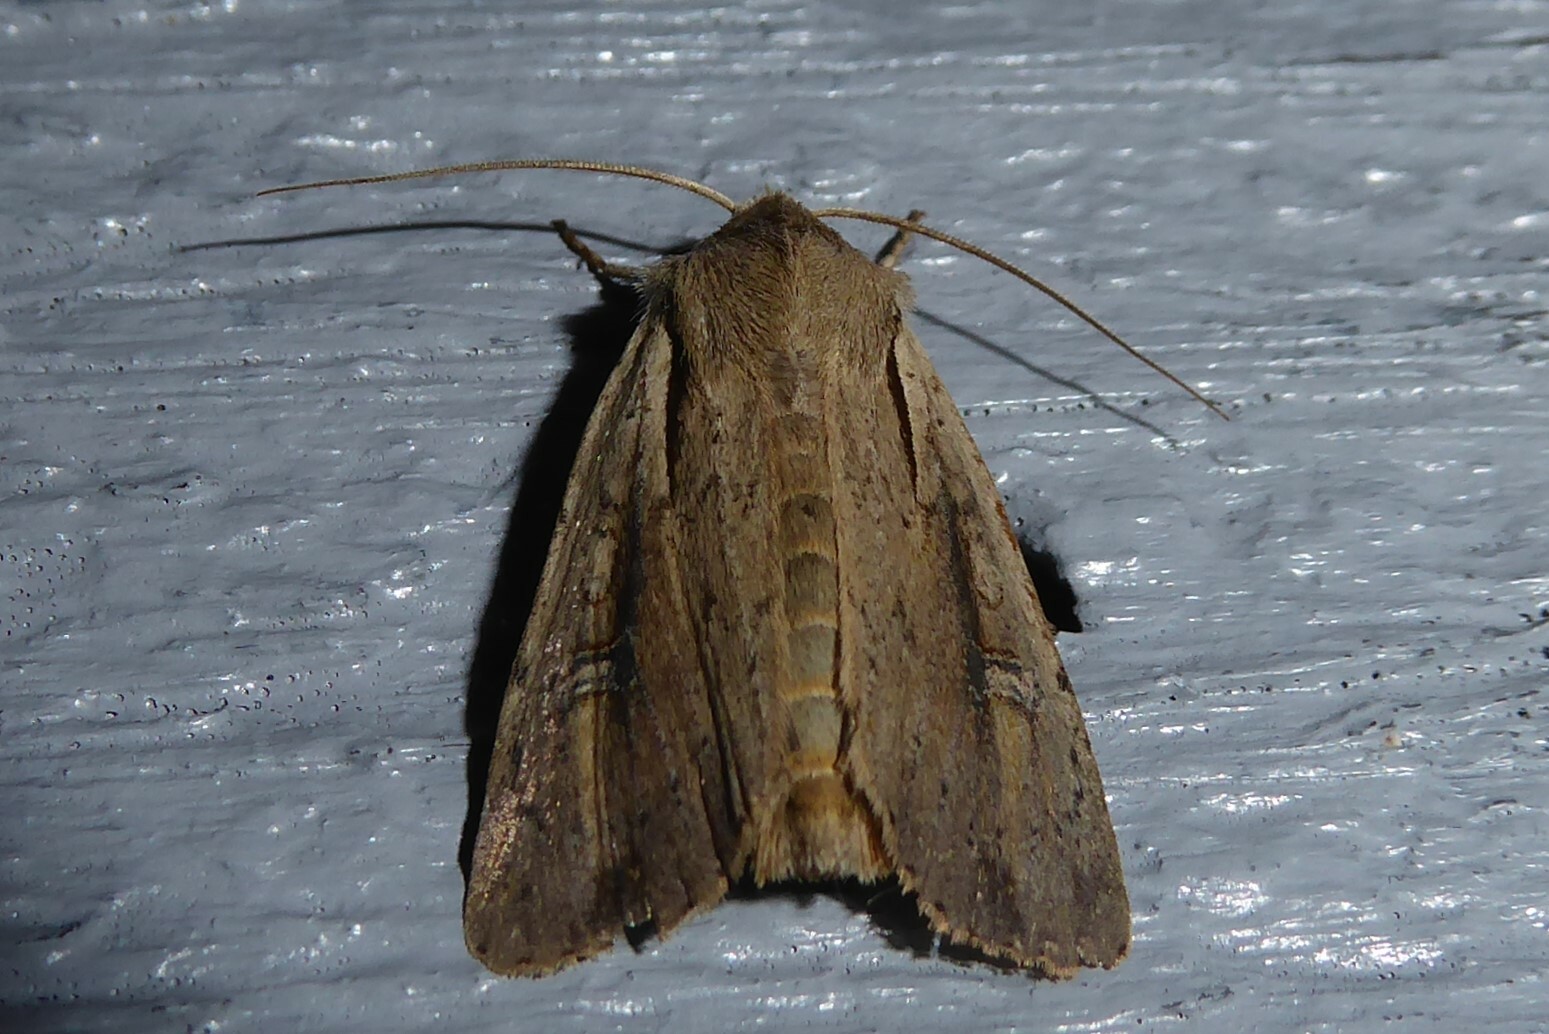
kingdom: Animalia
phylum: Arthropoda
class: Insecta
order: Lepidoptera
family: Noctuidae
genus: Ichneutica
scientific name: Ichneutica atristriga
